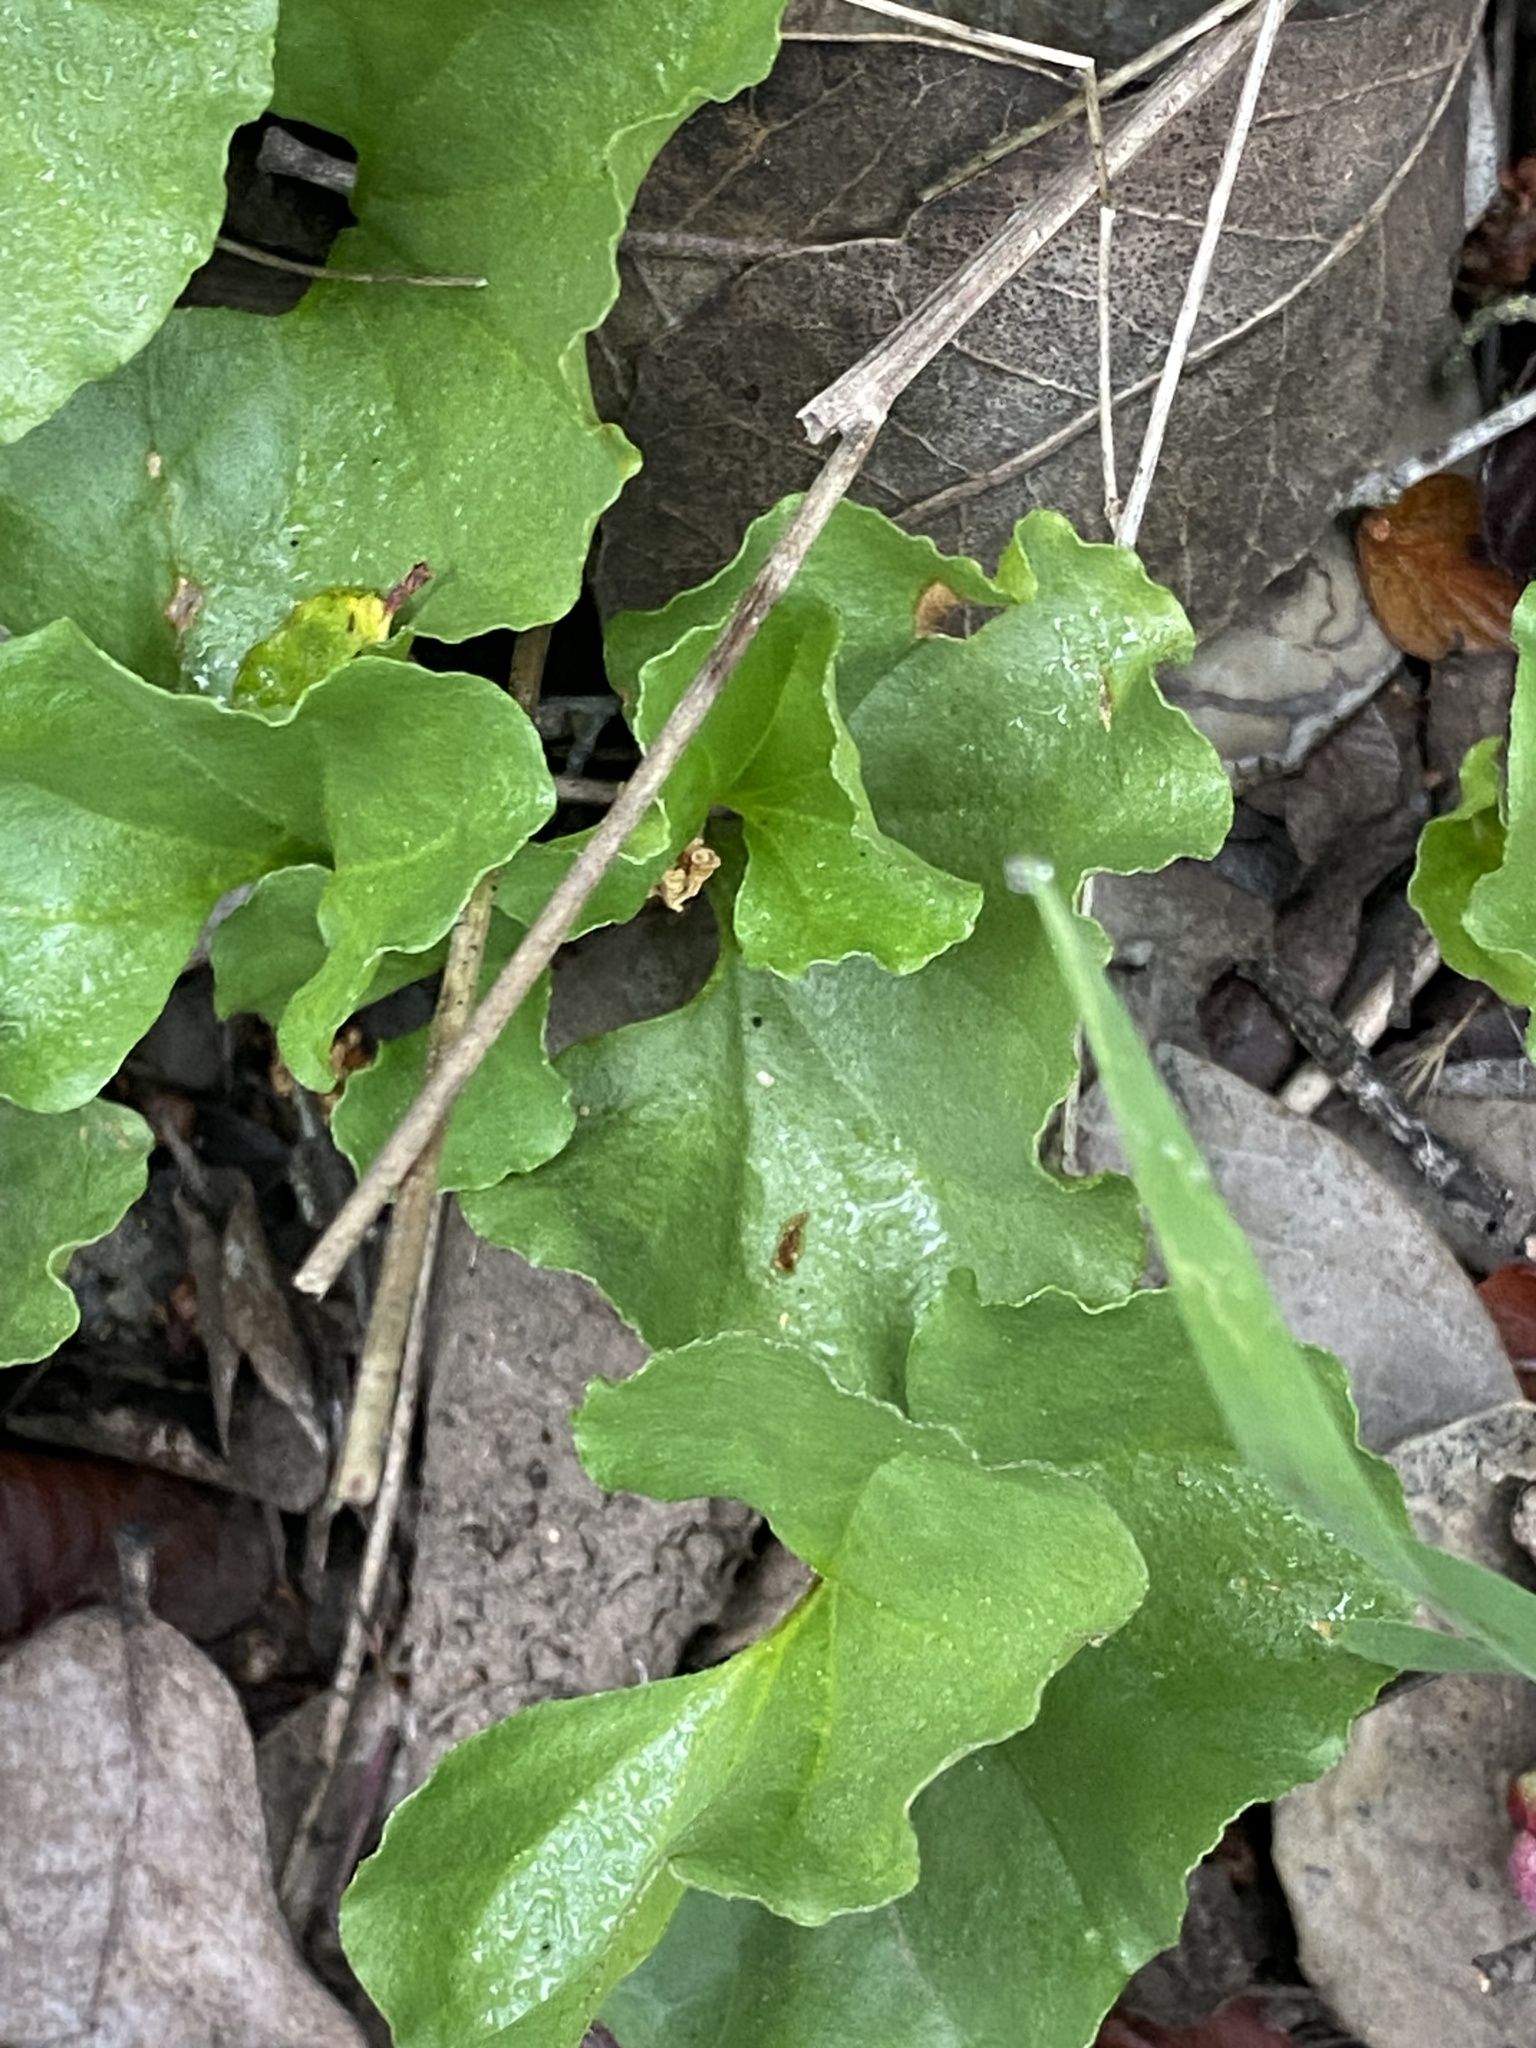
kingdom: Plantae
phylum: Tracheophyta
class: Magnoliopsida
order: Solanales
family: Convolvulaceae
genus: Dichondra
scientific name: Dichondra occidentalis
